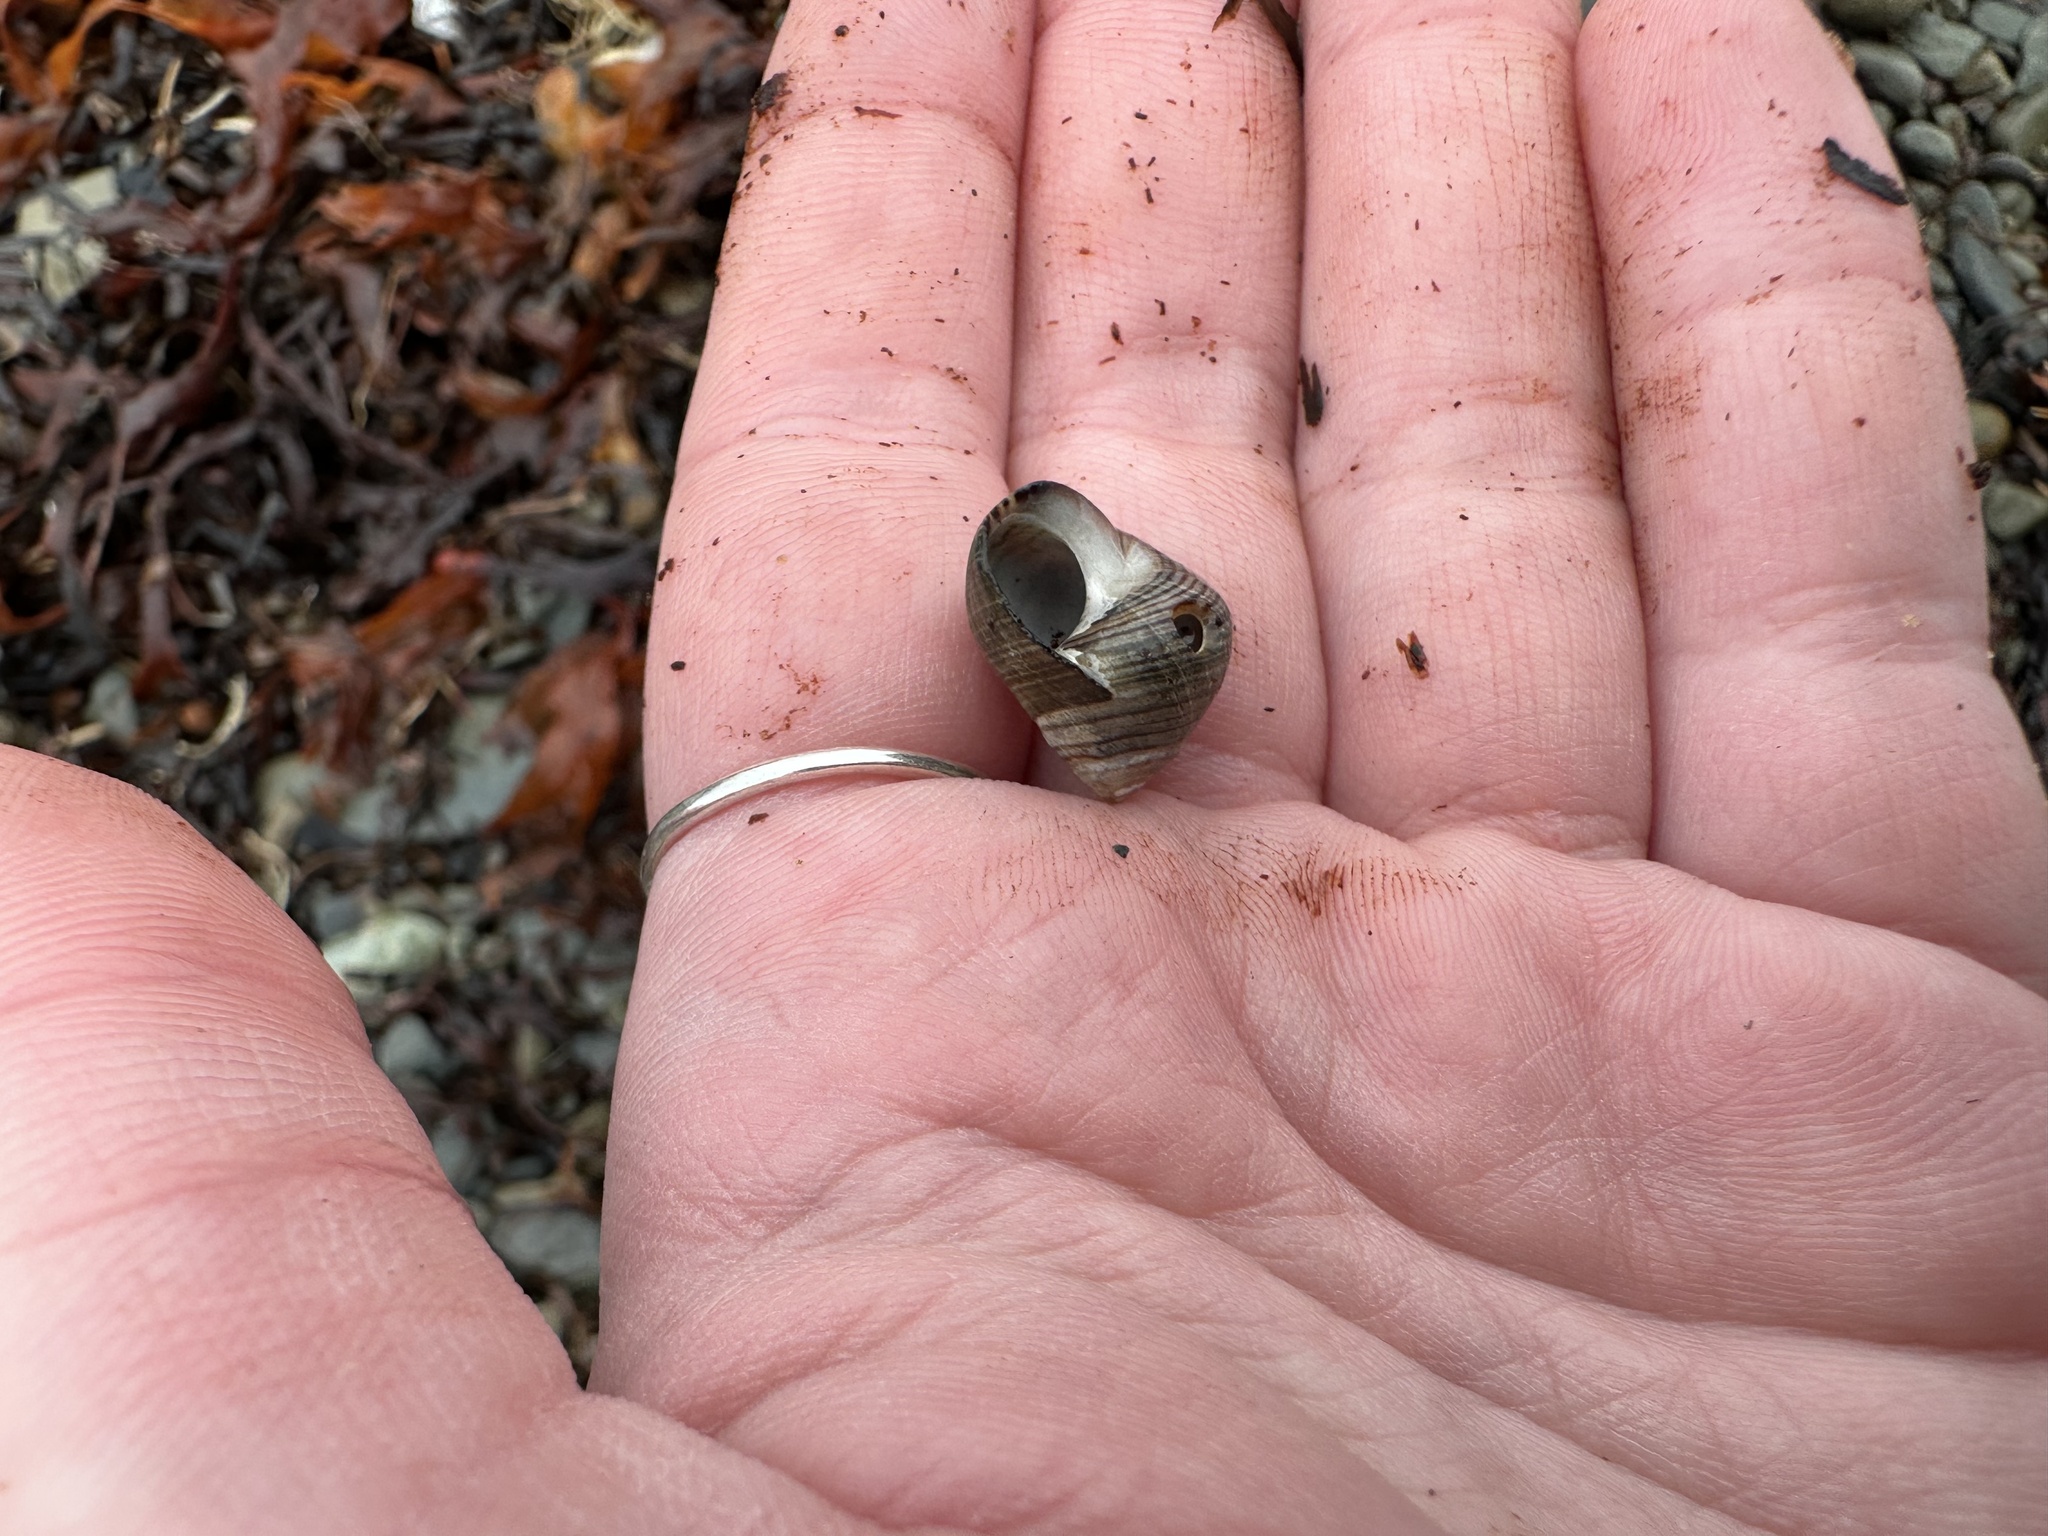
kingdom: Animalia
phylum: Mollusca
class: Gastropoda
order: Littorinimorpha
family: Littorinidae
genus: Littorina
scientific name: Littorina littorea
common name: Common periwinkle
